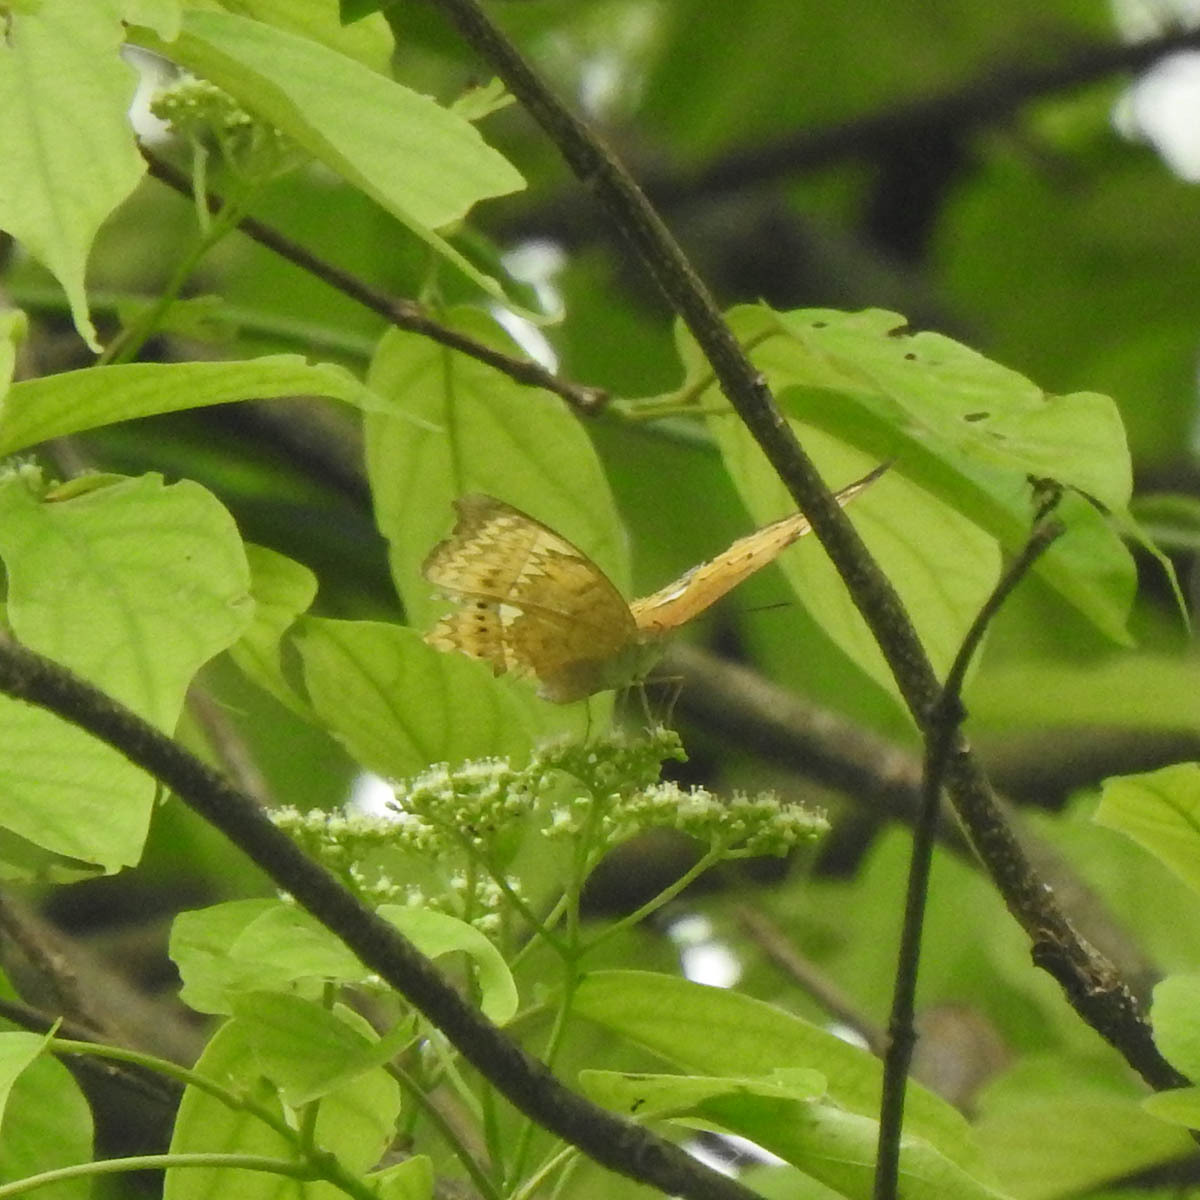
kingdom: Animalia
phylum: Arthropoda
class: Insecta
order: Lepidoptera
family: Nymphalidae
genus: Cirrochroa
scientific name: Cirrochroa tyche
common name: Common yeoman
